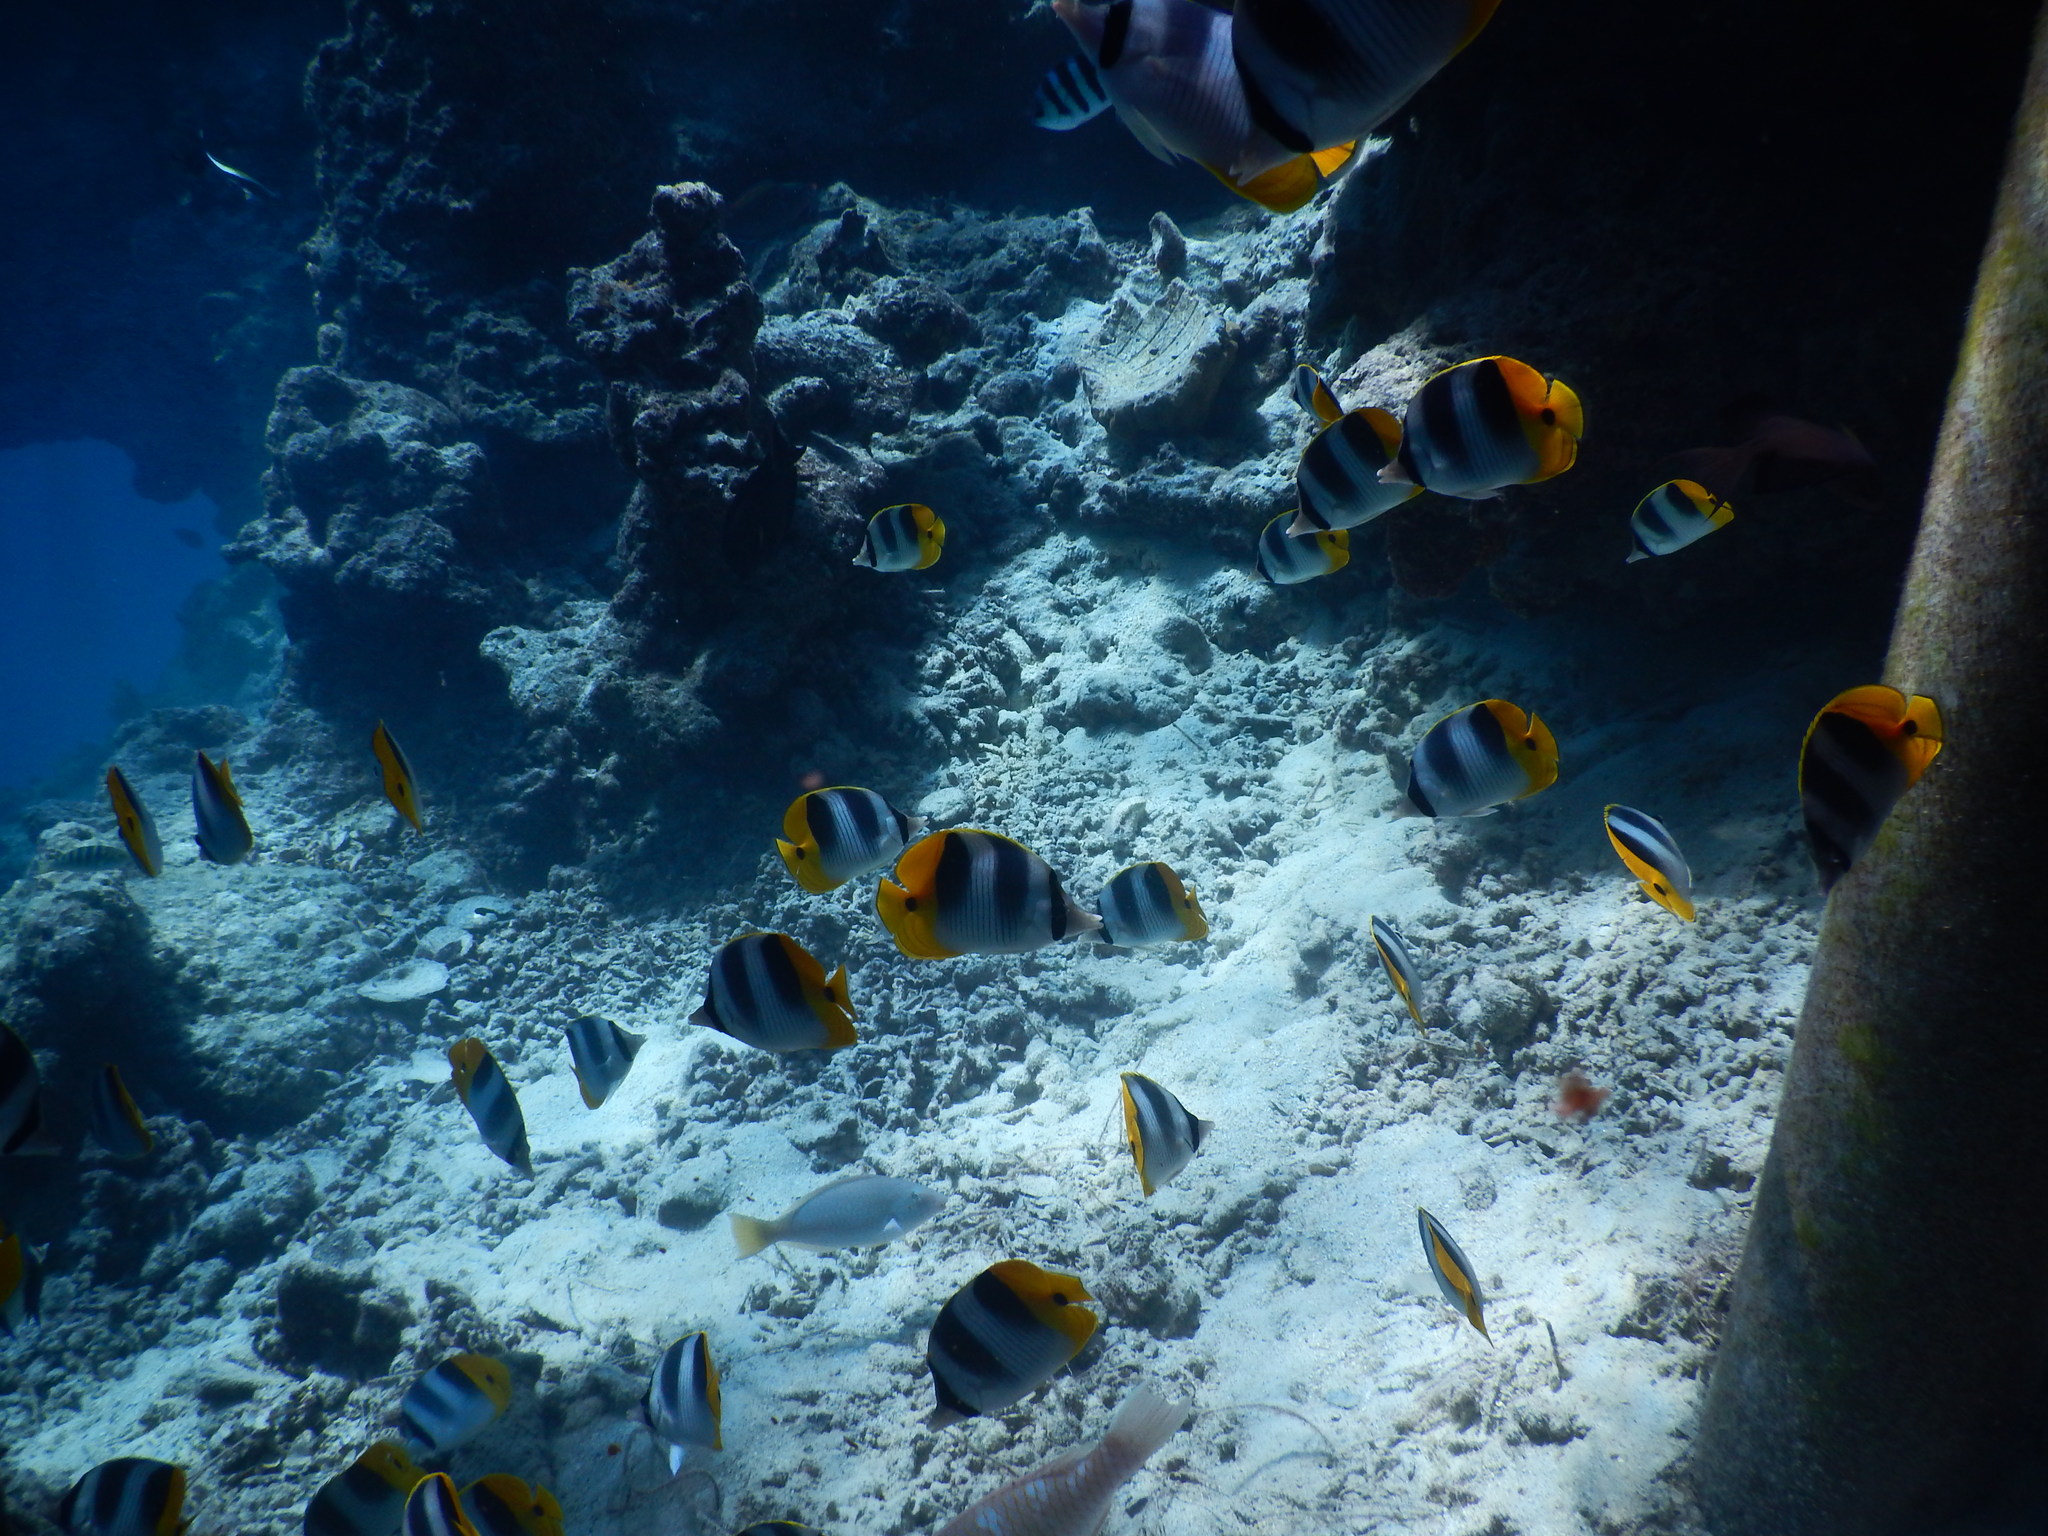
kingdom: Animalia
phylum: Chordata
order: Perciformes
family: Chaetodontidae
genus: Chaetodon
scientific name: Chaetodon ulietensis
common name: Pacific double-saddle butterflyfish
